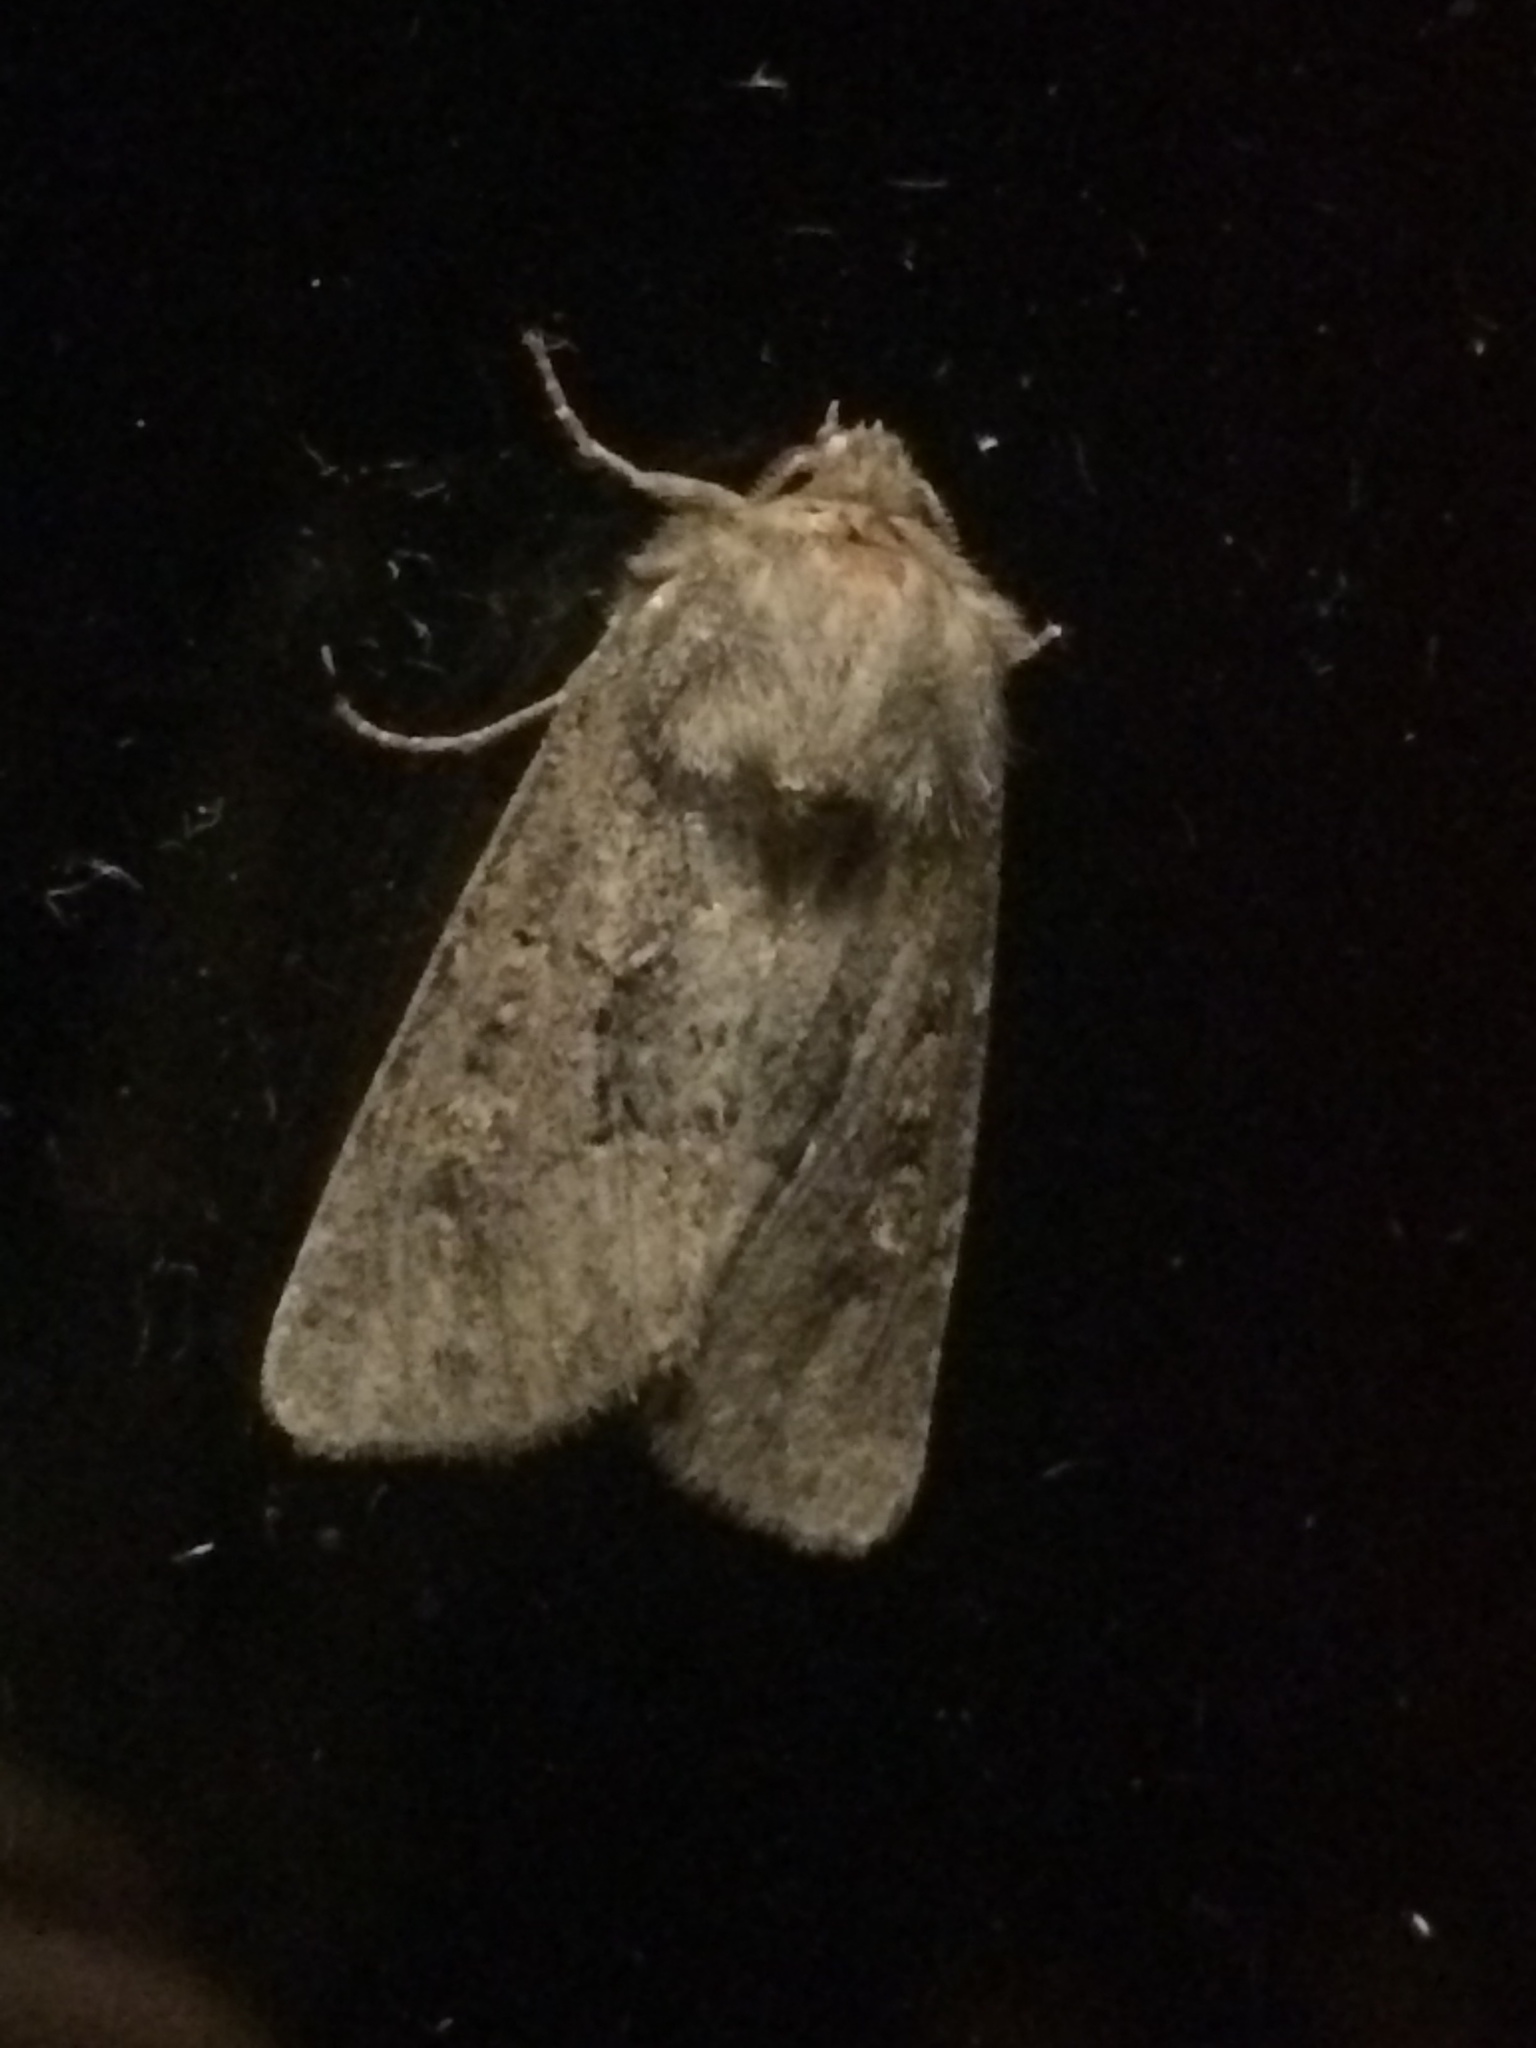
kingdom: Animalia
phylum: Arthropoda
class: Insecta
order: Lepidoptera
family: Noctuidae
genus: Luperina
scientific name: Luperina testacea
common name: Flounced rustic
